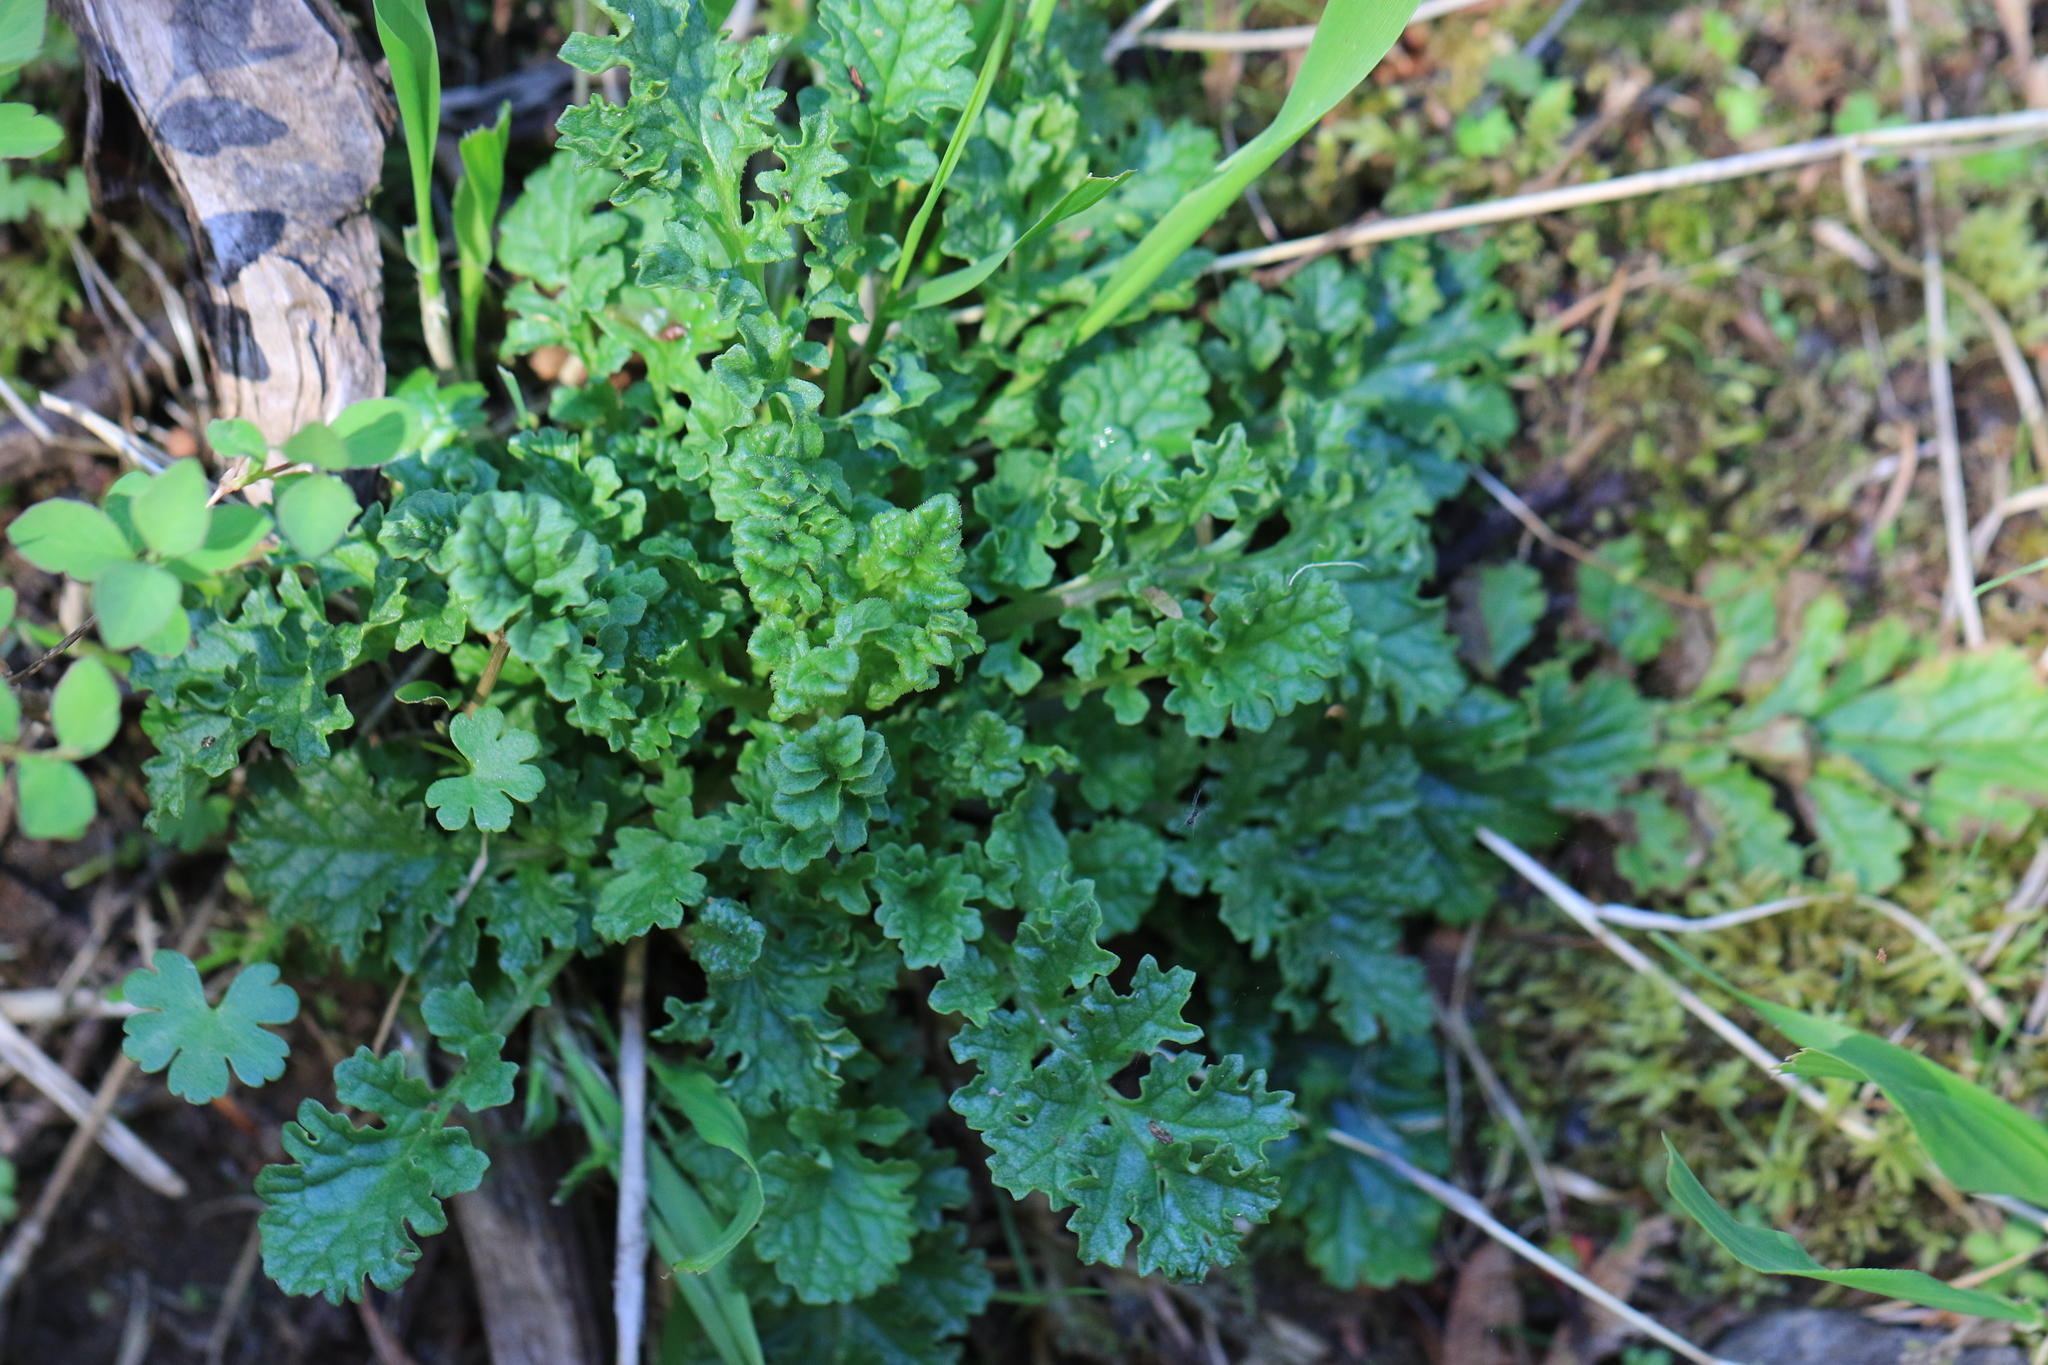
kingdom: Plantae
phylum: Tracheophyta
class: Magnoliopsida
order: Asterales
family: Asteraceae
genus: Jacobaea
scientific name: Jacobaea vulgaris
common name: Stinking willie
